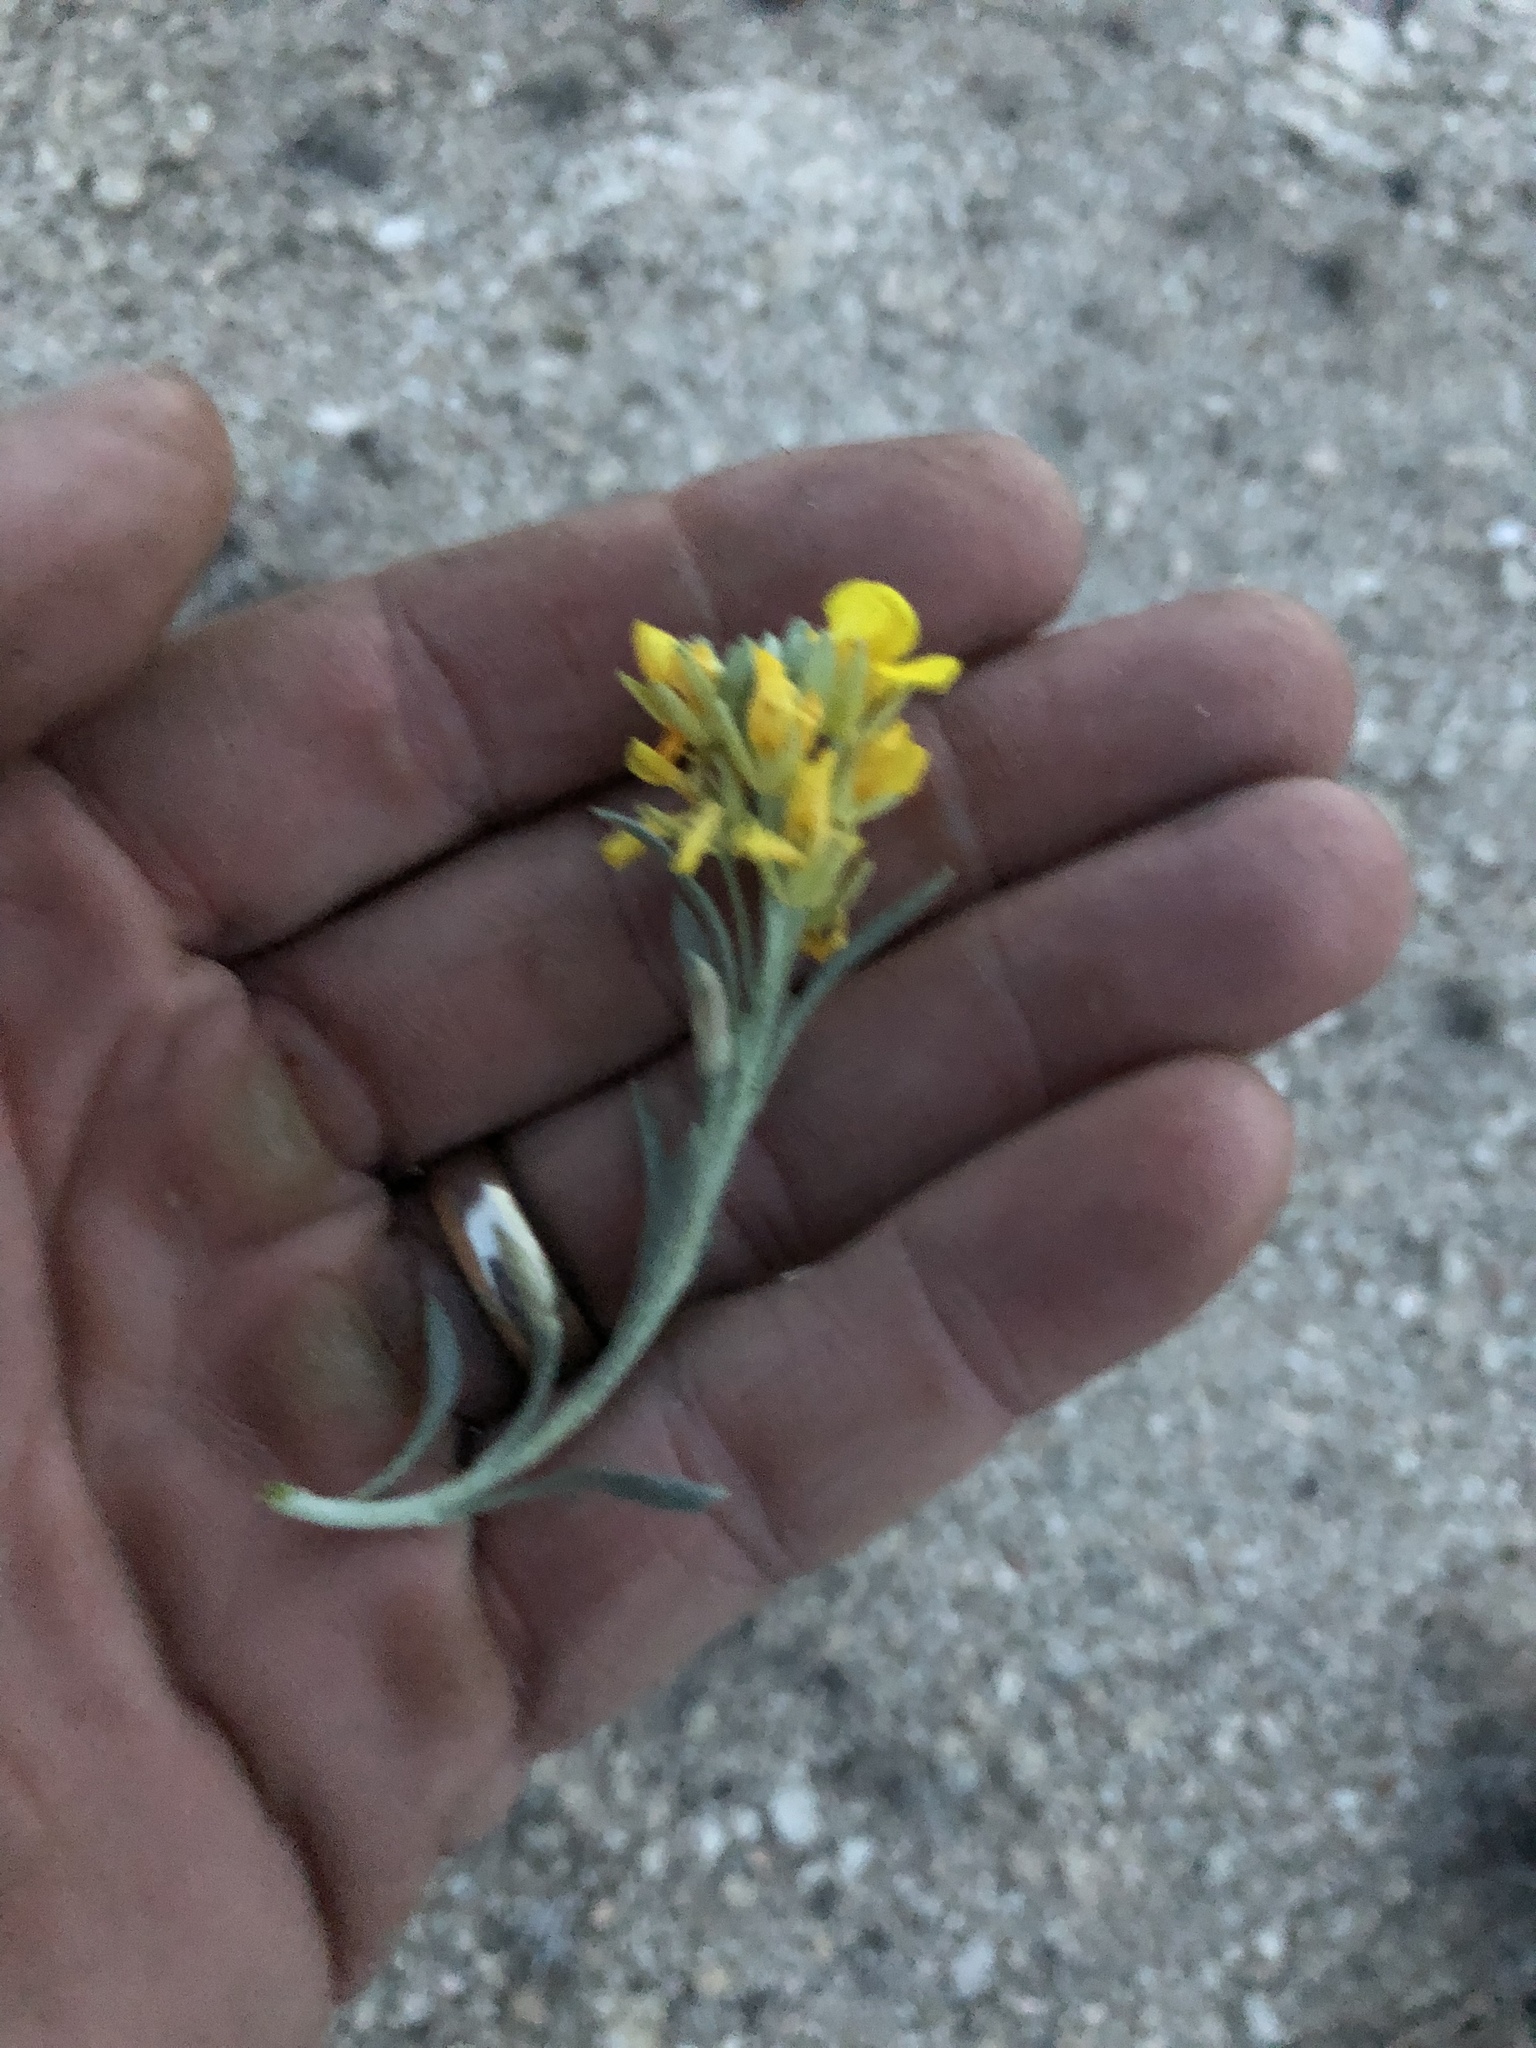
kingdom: Plantae
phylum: Tracheophyta
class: Magnoliopsida
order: Brassicales
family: Brassicaceae
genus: Erysimum
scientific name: Erysimum capitatum
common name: Western wallflower
